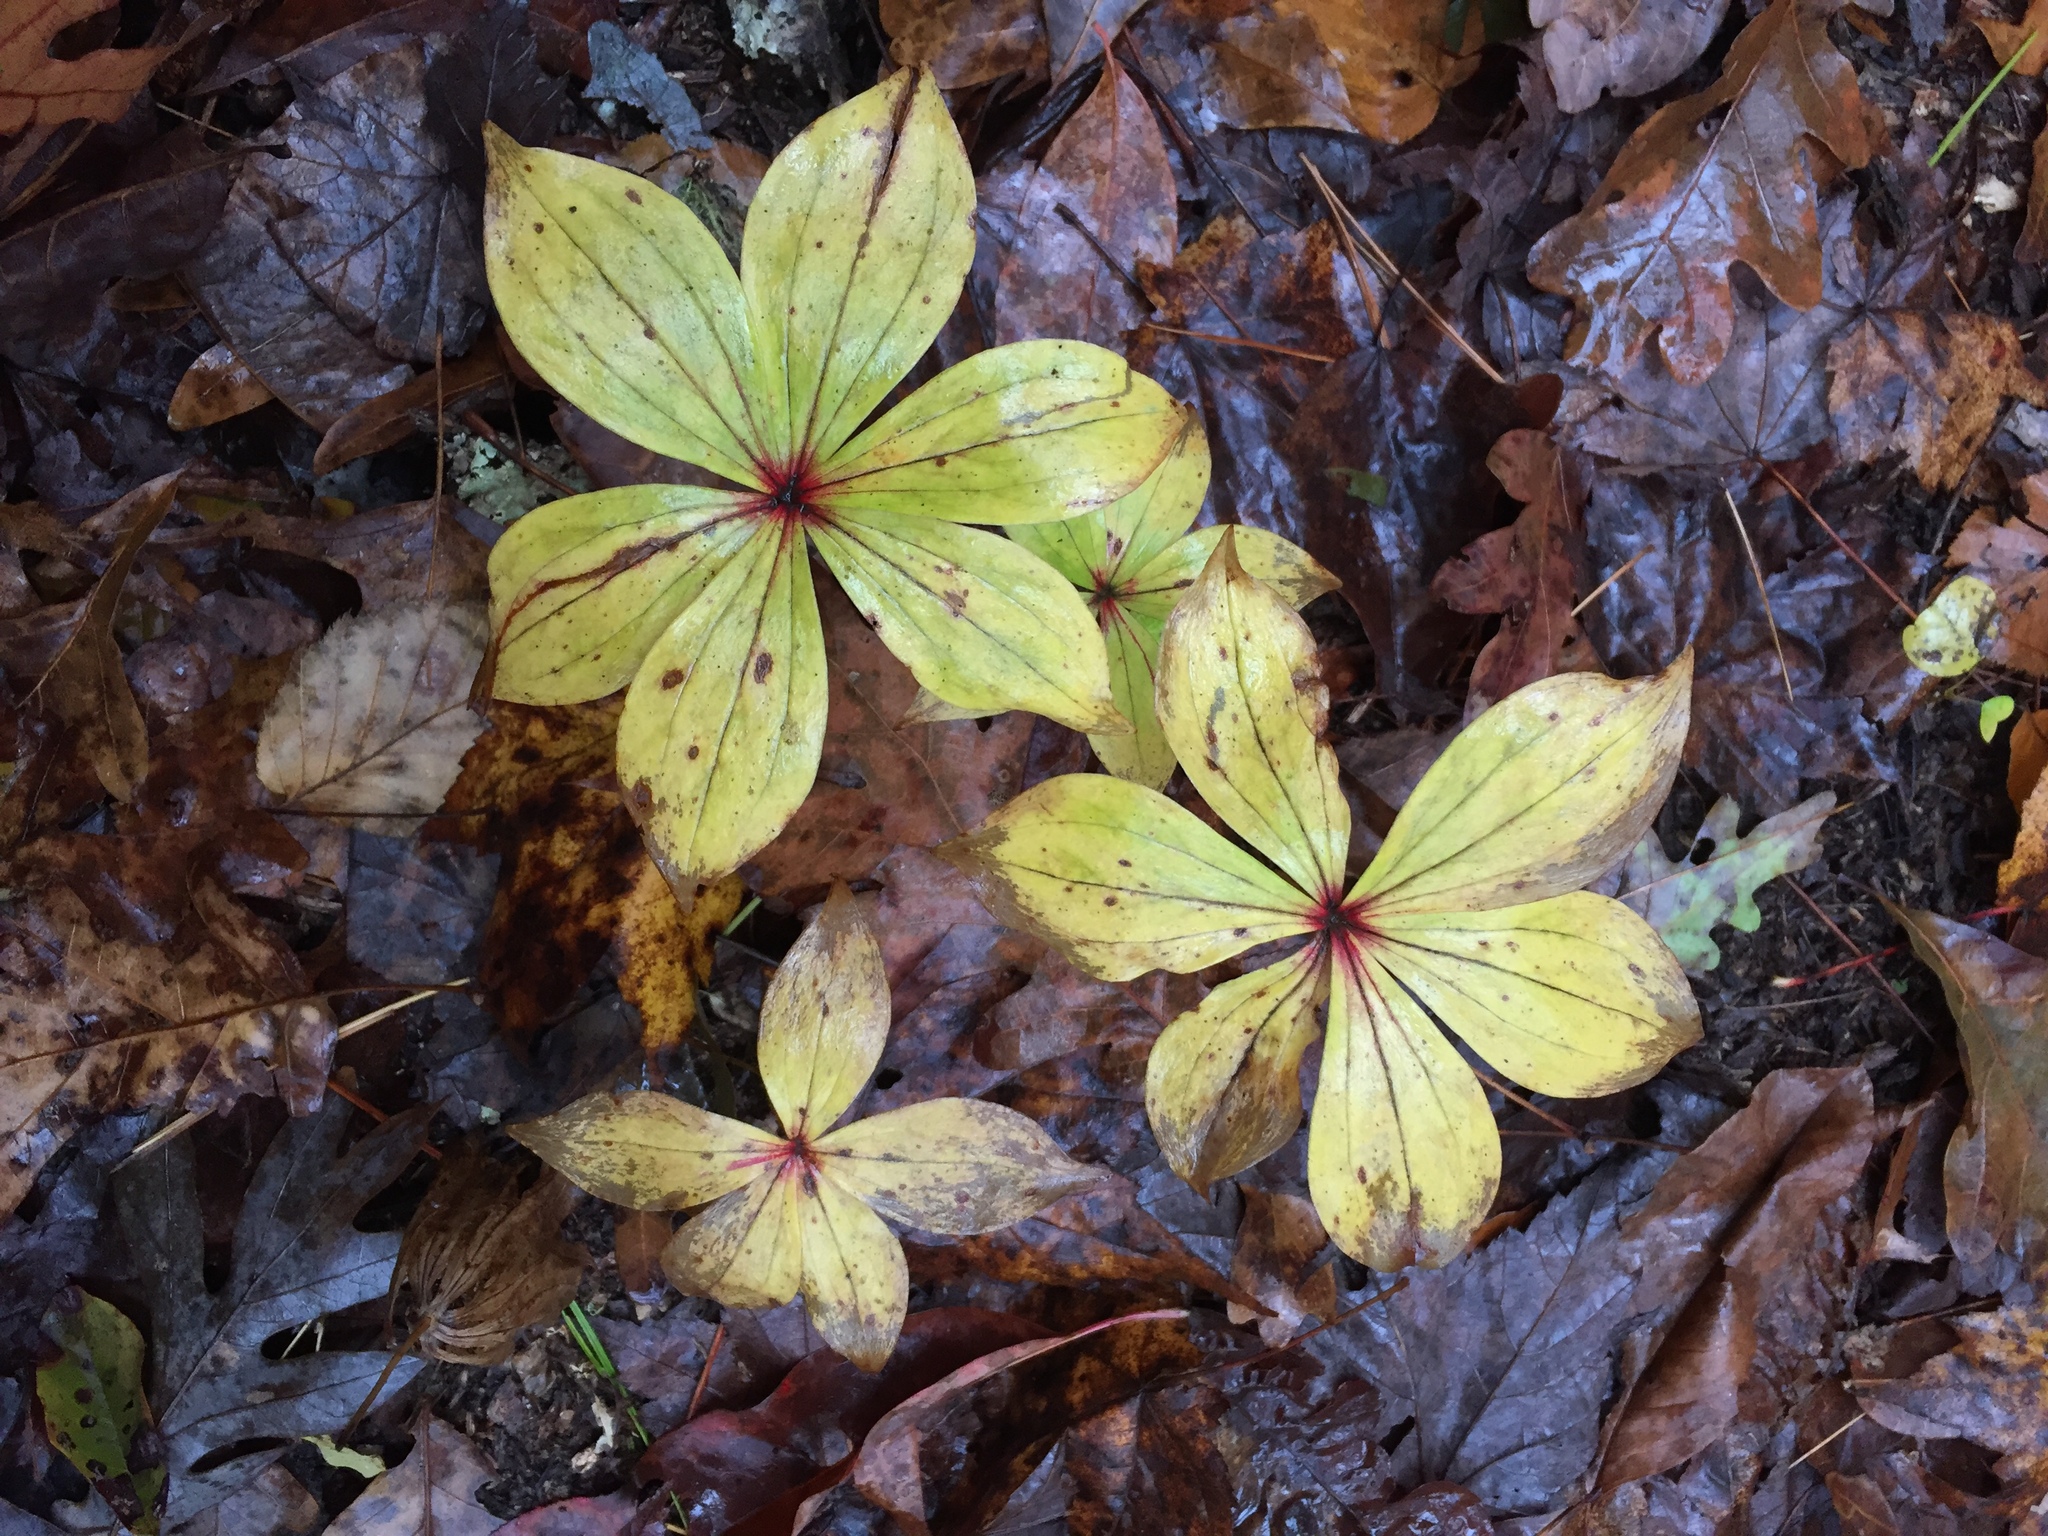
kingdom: Plantae
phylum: Tracheophyta
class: Liliopsida
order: Liliales
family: Liliaceae
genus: Medeola
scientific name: Medeola virginiana
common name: Indian cucumber-root
